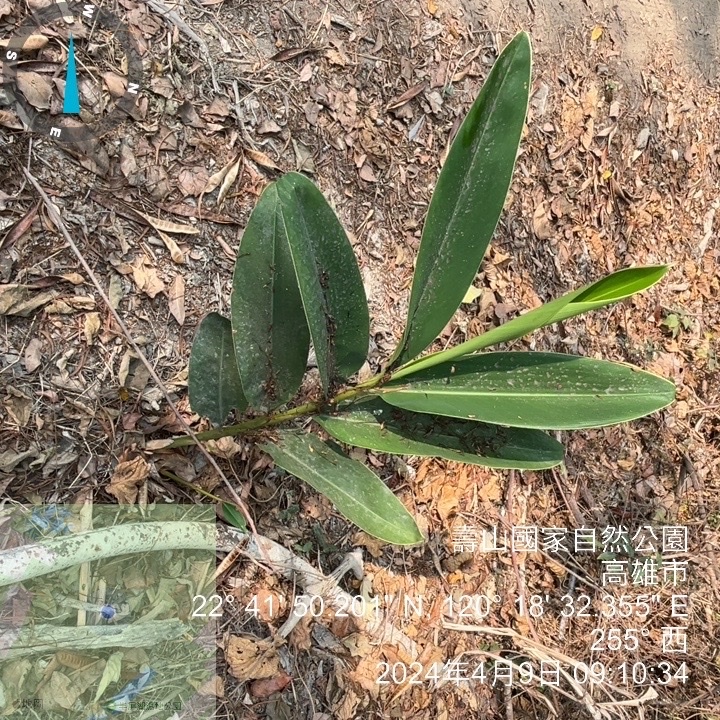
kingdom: Plantae
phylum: Tracheophyta
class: Liliopsida
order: Zingiberales
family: Zingiberaceae
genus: Alpinia
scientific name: Alpinia zerumbet
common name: Shellplant
